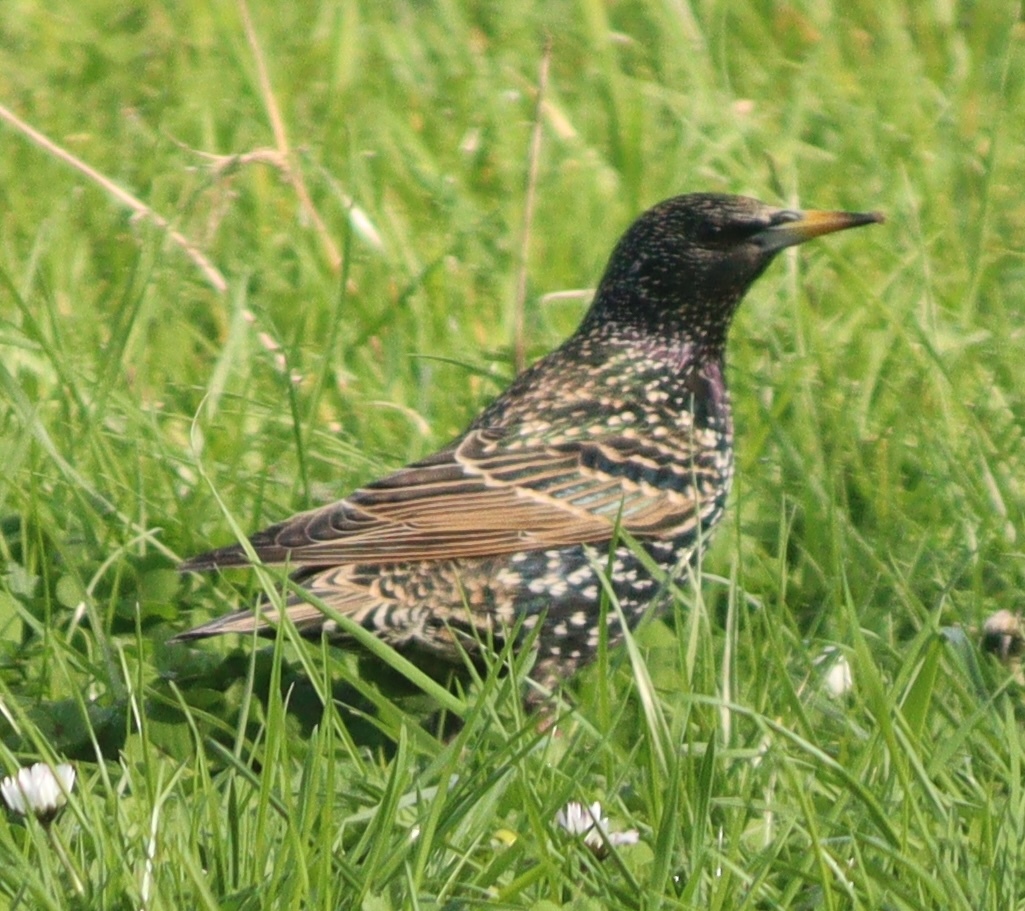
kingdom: Animalia
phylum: Chordata
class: Aves
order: Passeriformes
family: Sturnidae
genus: Sturnus
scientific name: Sturnus vulgaris
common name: Common starling
